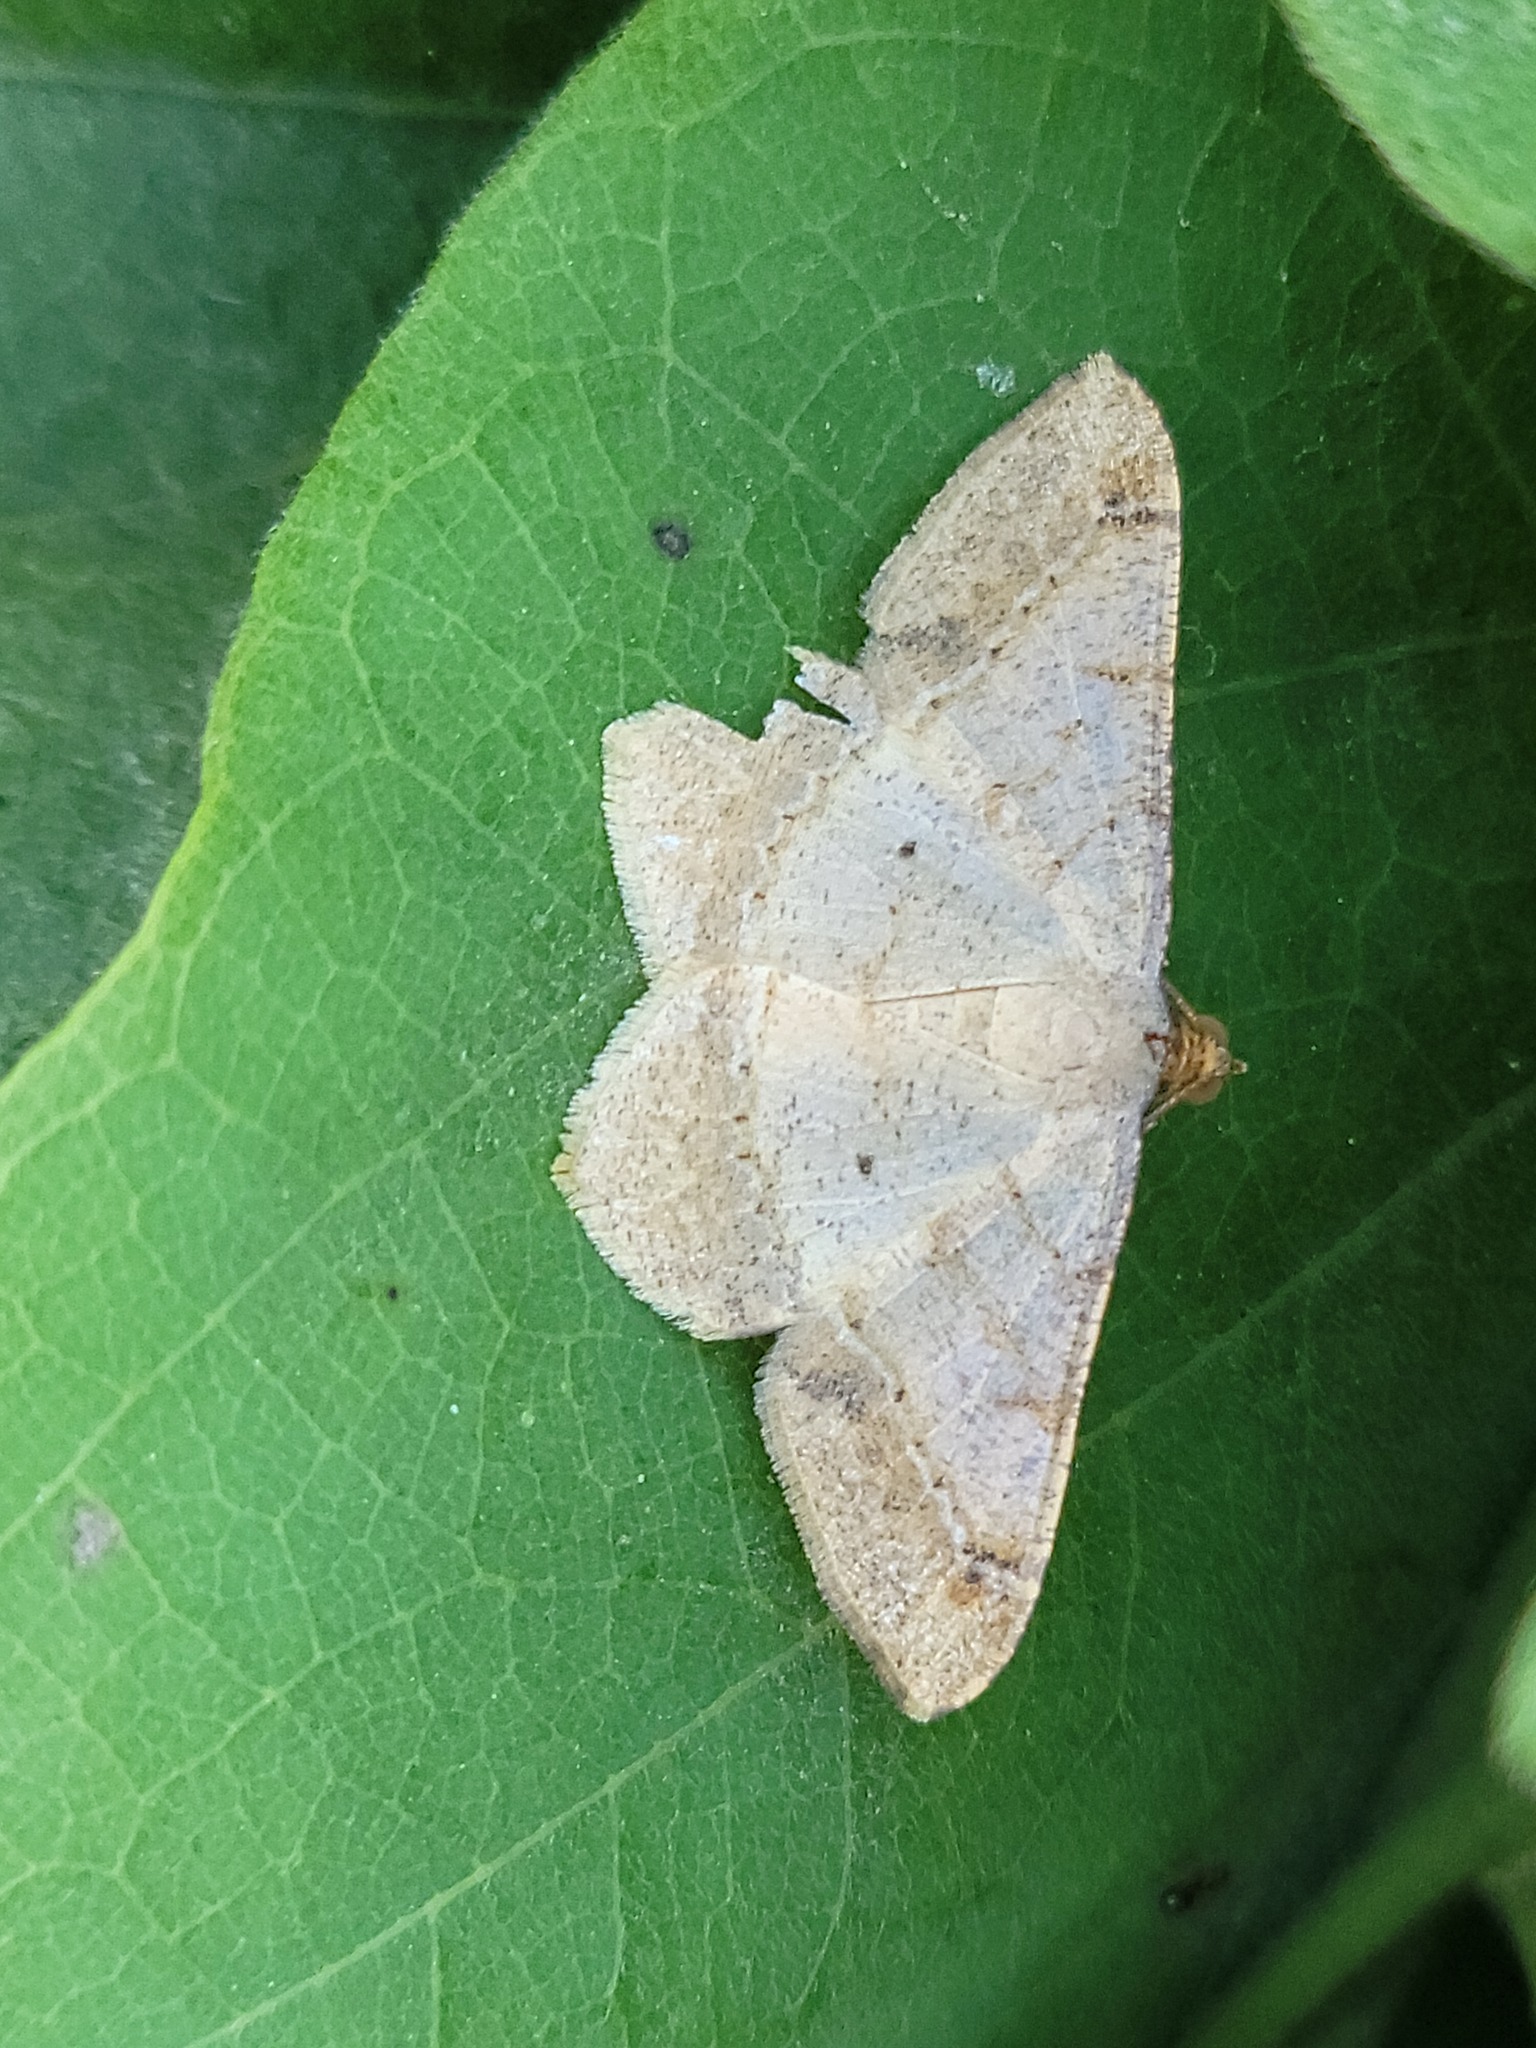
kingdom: Animalia
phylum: Arthropoda
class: Insecta
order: Lepidoptera
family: Geometridae
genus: Macaria
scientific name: Macaria abydata
